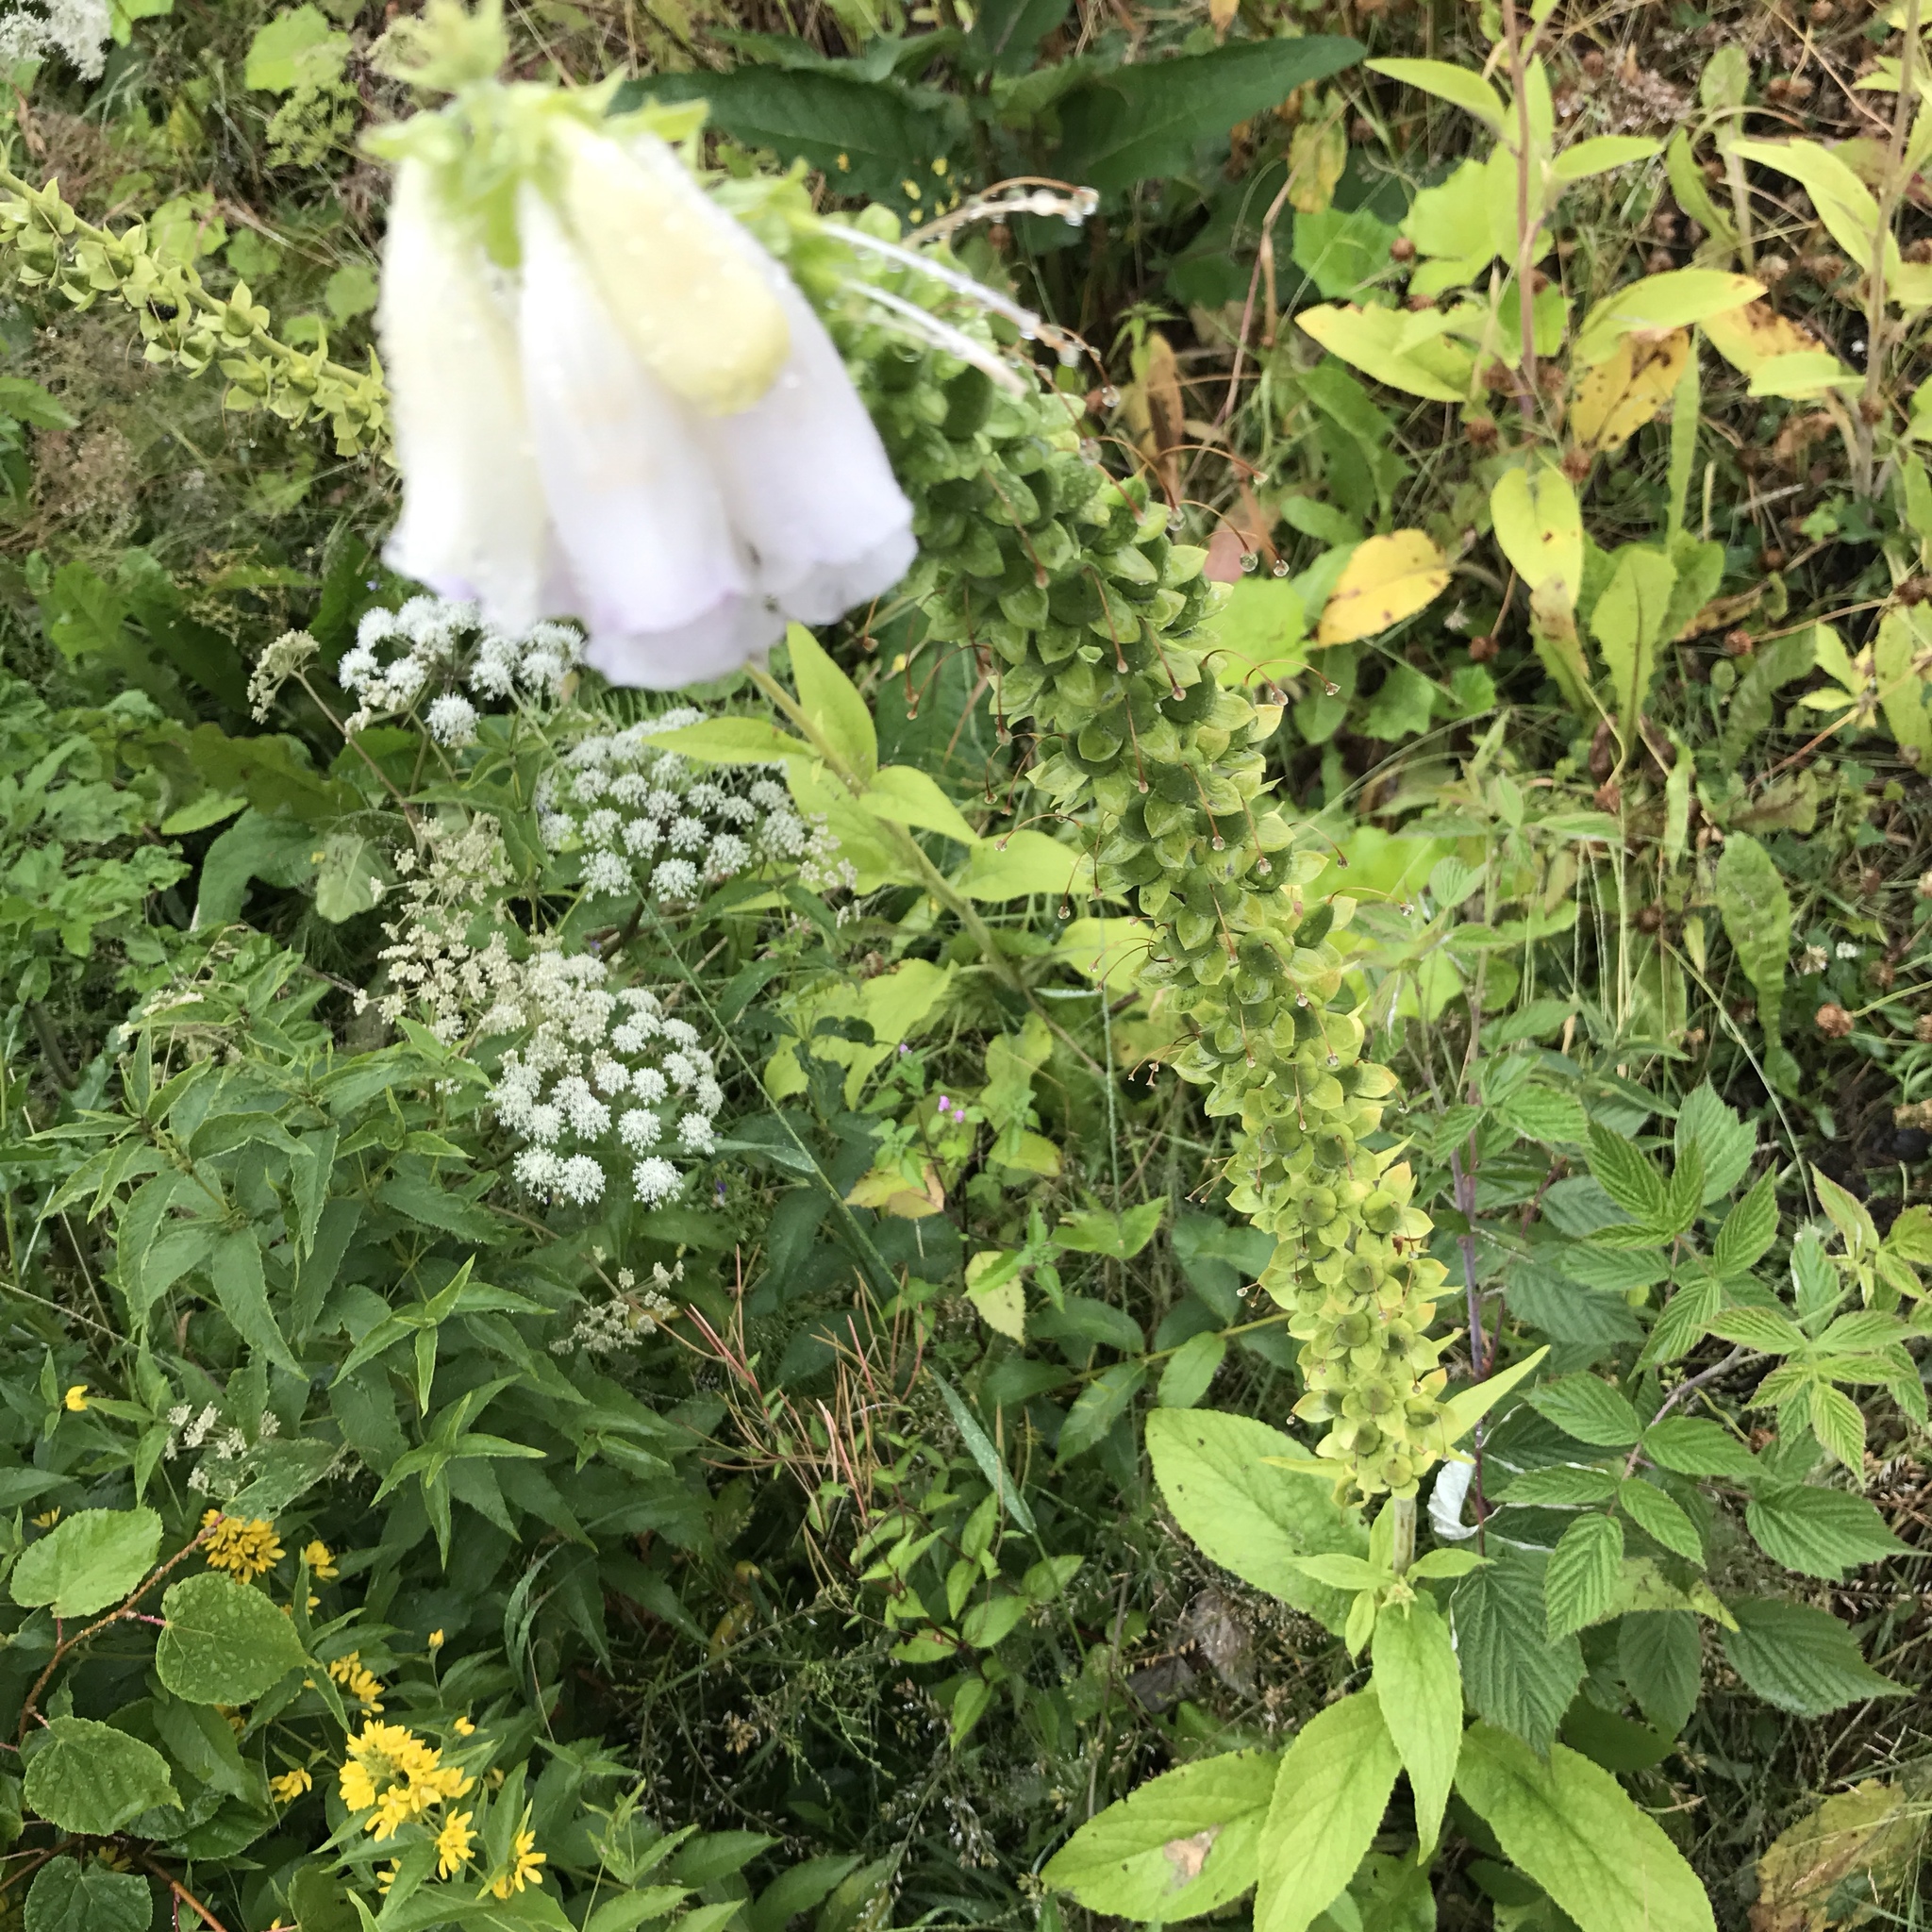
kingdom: Plantae
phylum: Tracheophyta
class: Magnoliopsida
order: Lamiales
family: Plantaginaceae
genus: Digitalis
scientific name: Digitalis purpurea
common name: Foxglove
